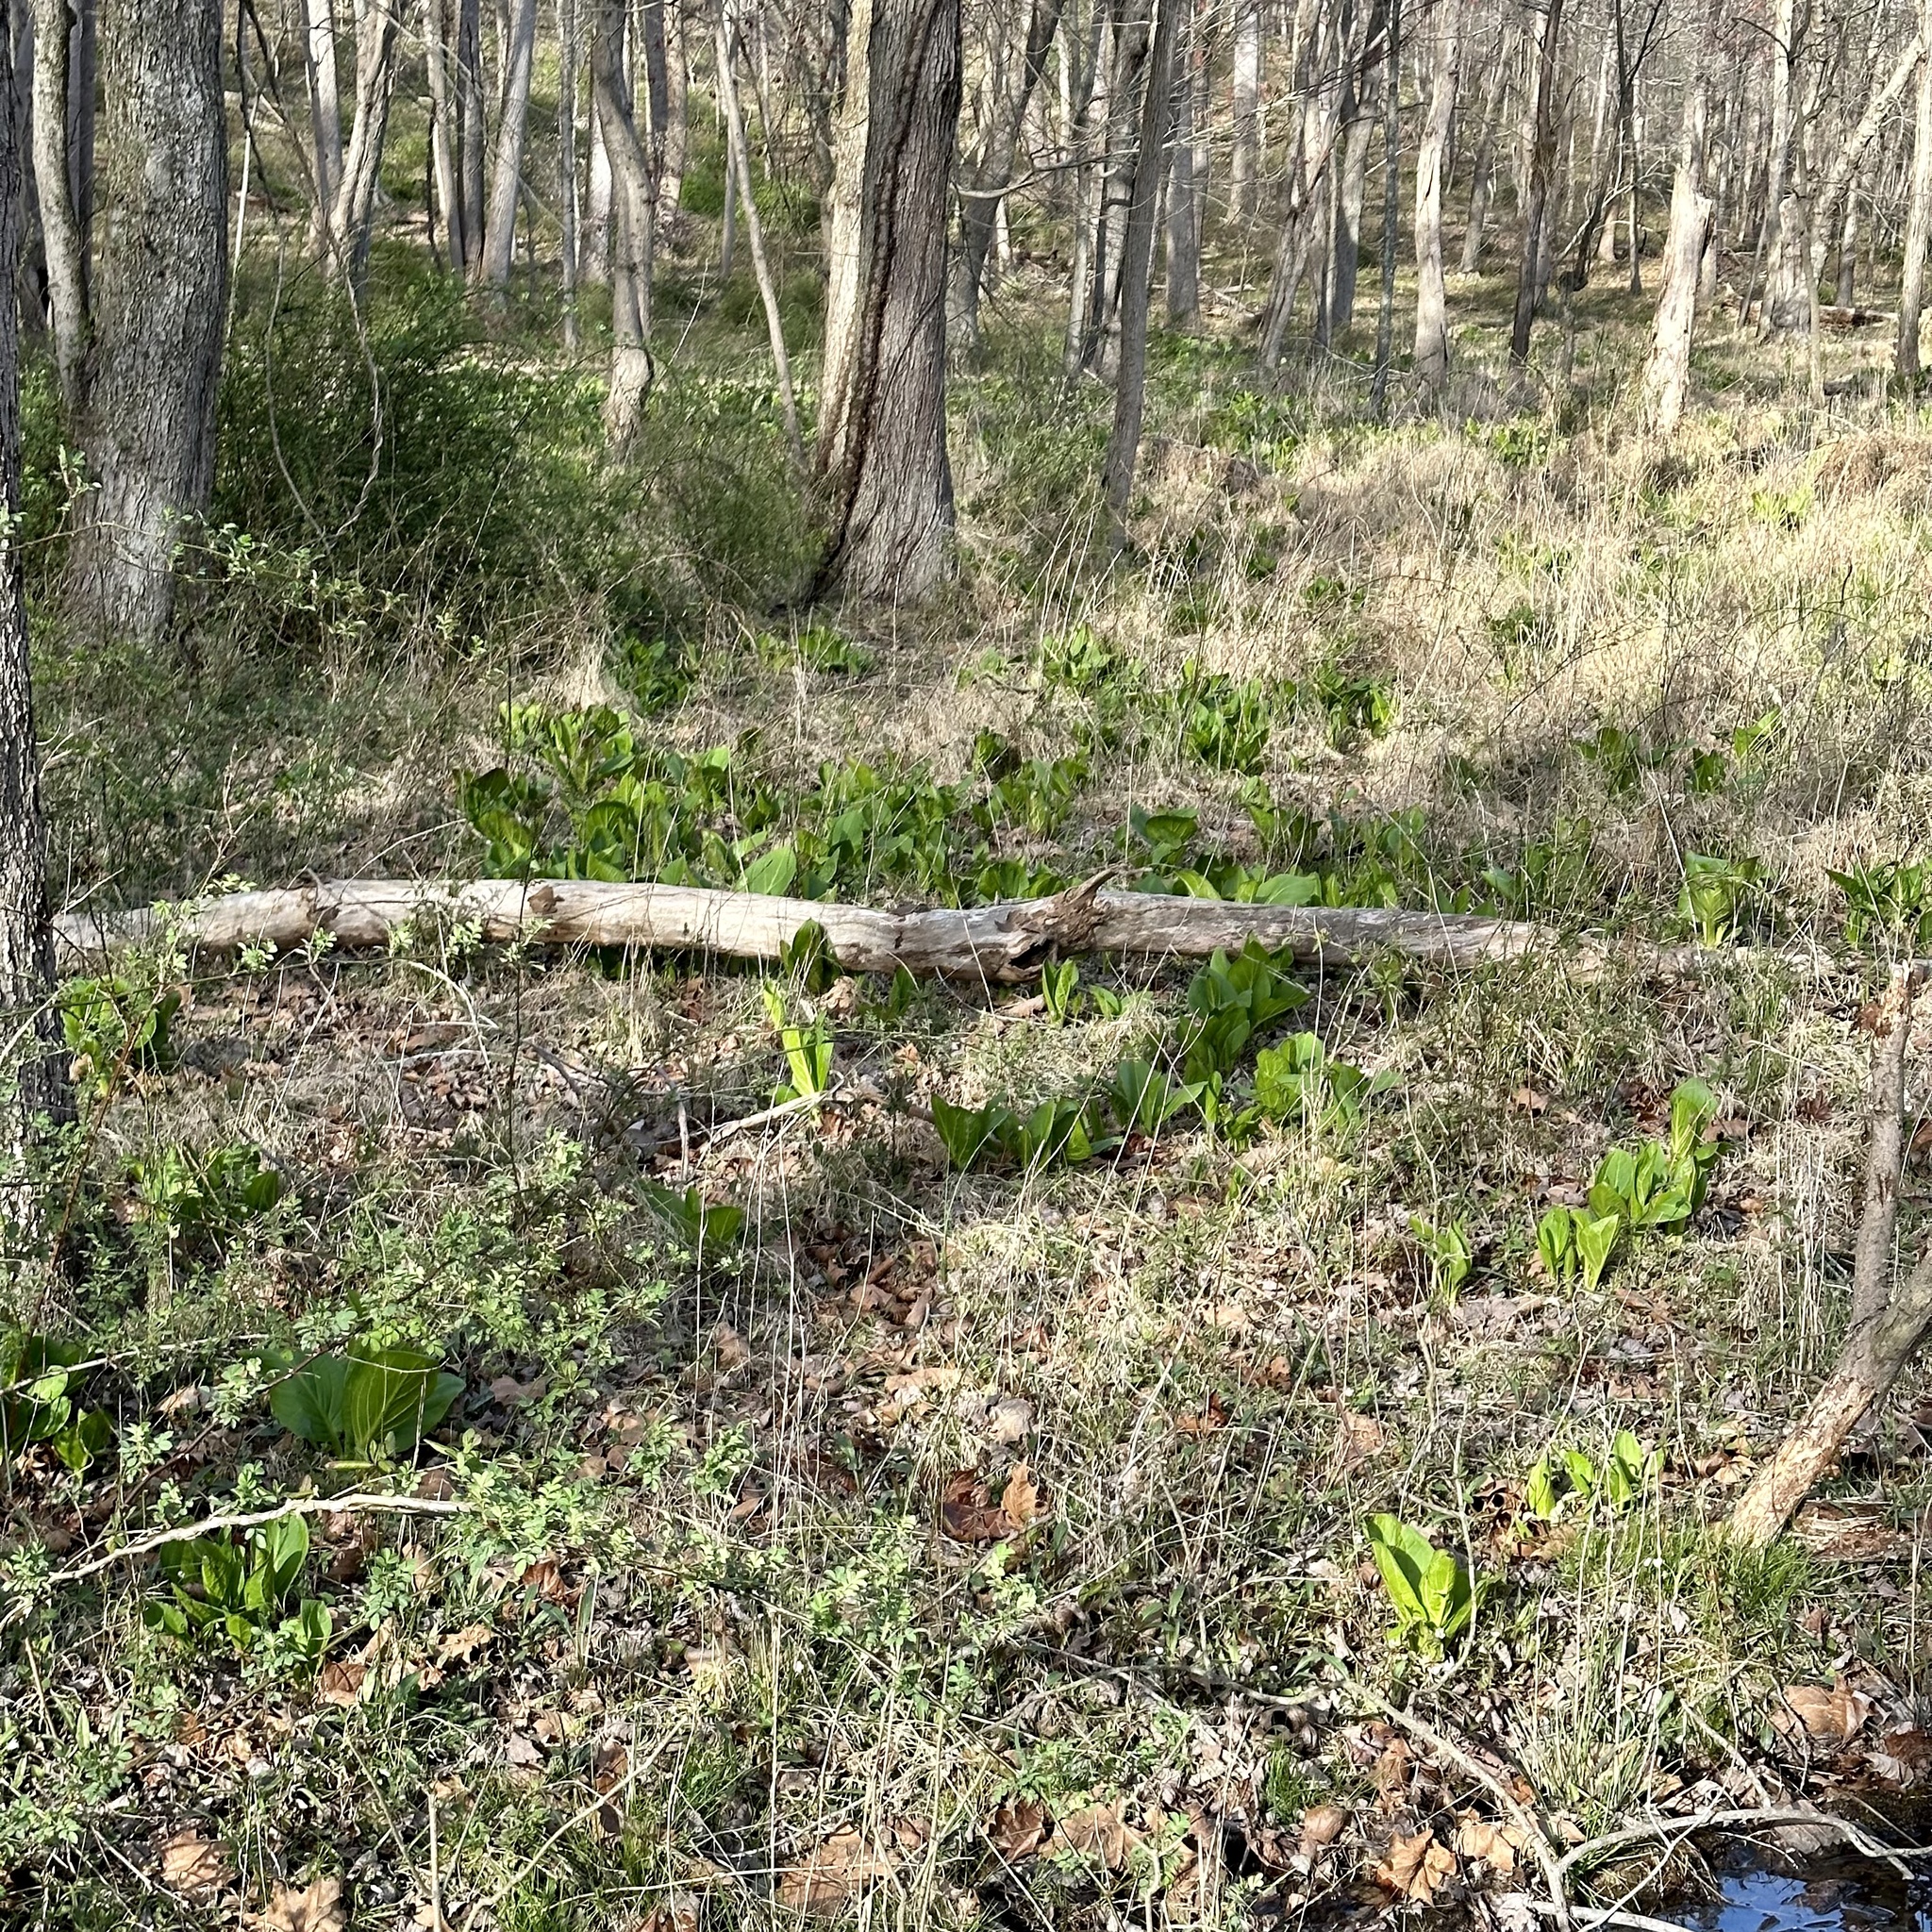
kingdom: Plantae
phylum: Tracheophyta
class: Liliopsida
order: Alismatales
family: Araceae
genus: Symplocarpus
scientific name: Symplocarpus foetidus
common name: Eastern skunk cabbage
